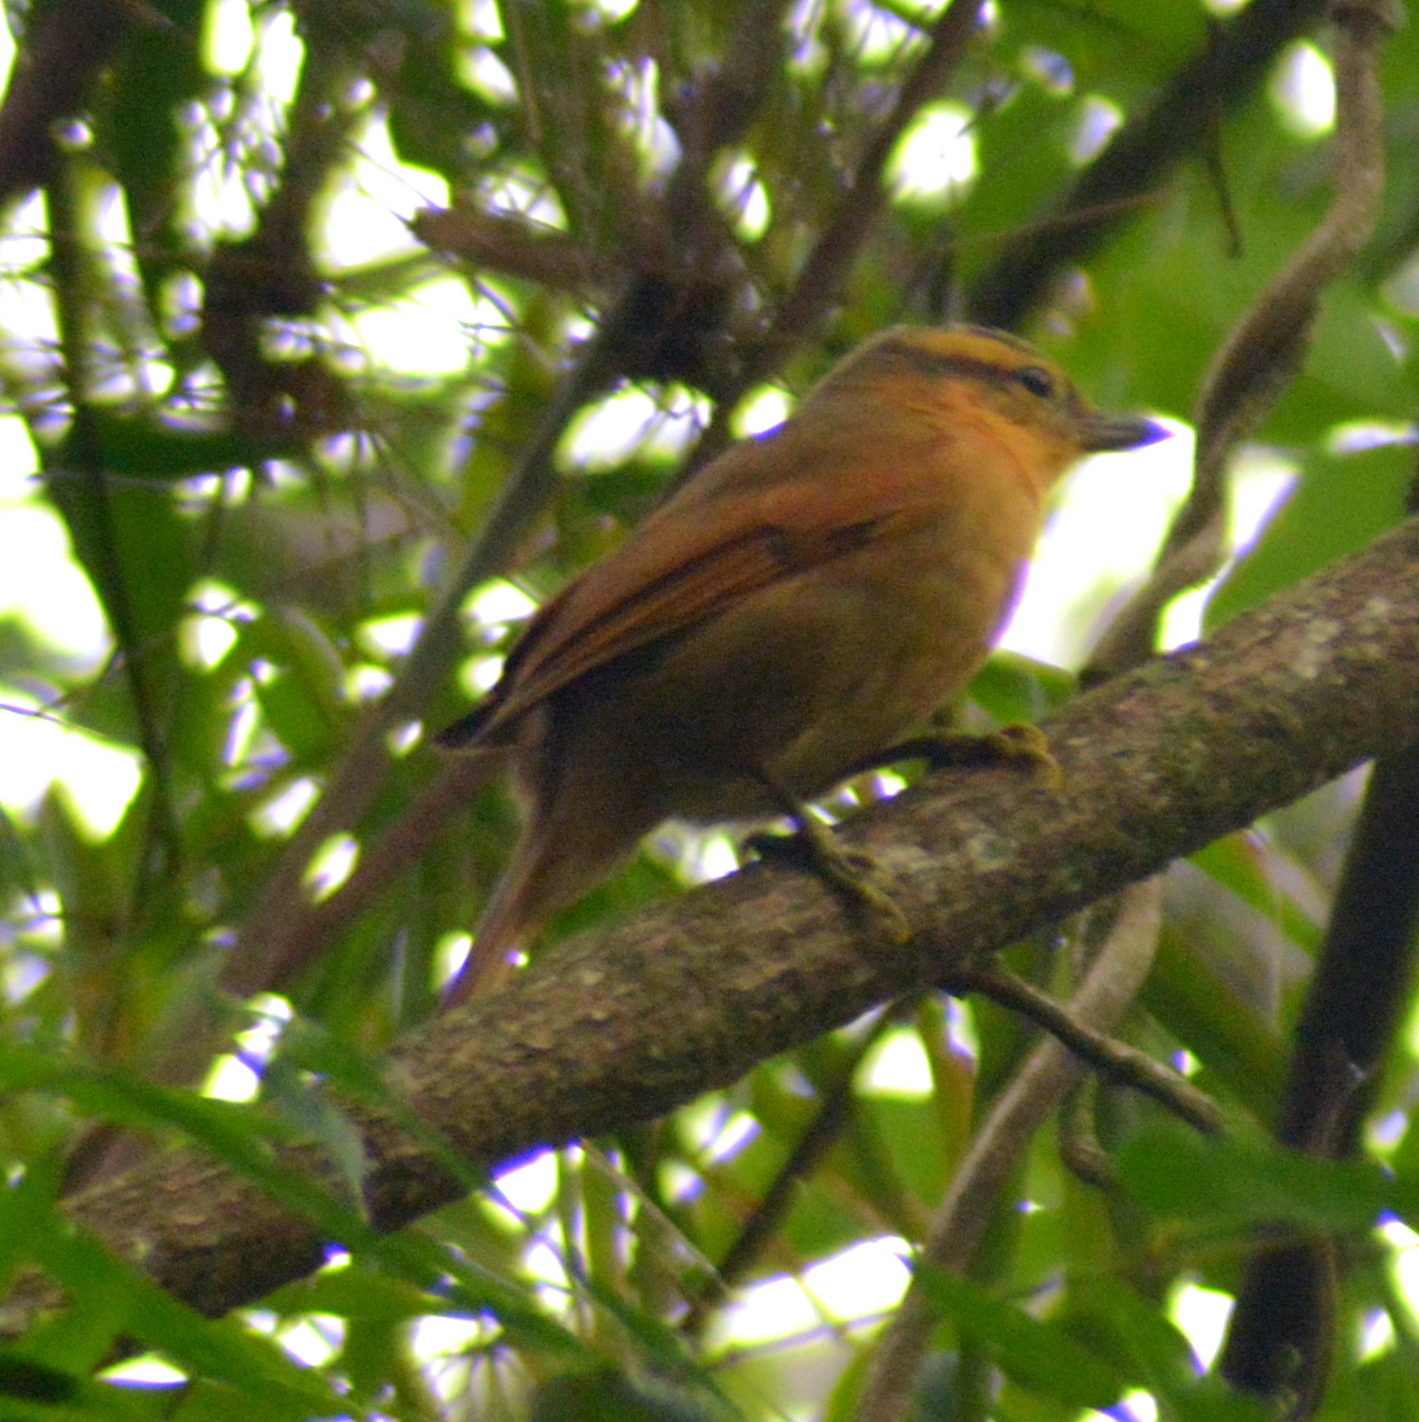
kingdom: Animalia
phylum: Chordata
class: Aves
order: Passeriformes
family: Furnariidae
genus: Philydor
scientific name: Philydor lichtensteini
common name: Ochre-breasted foliage-gleaner
